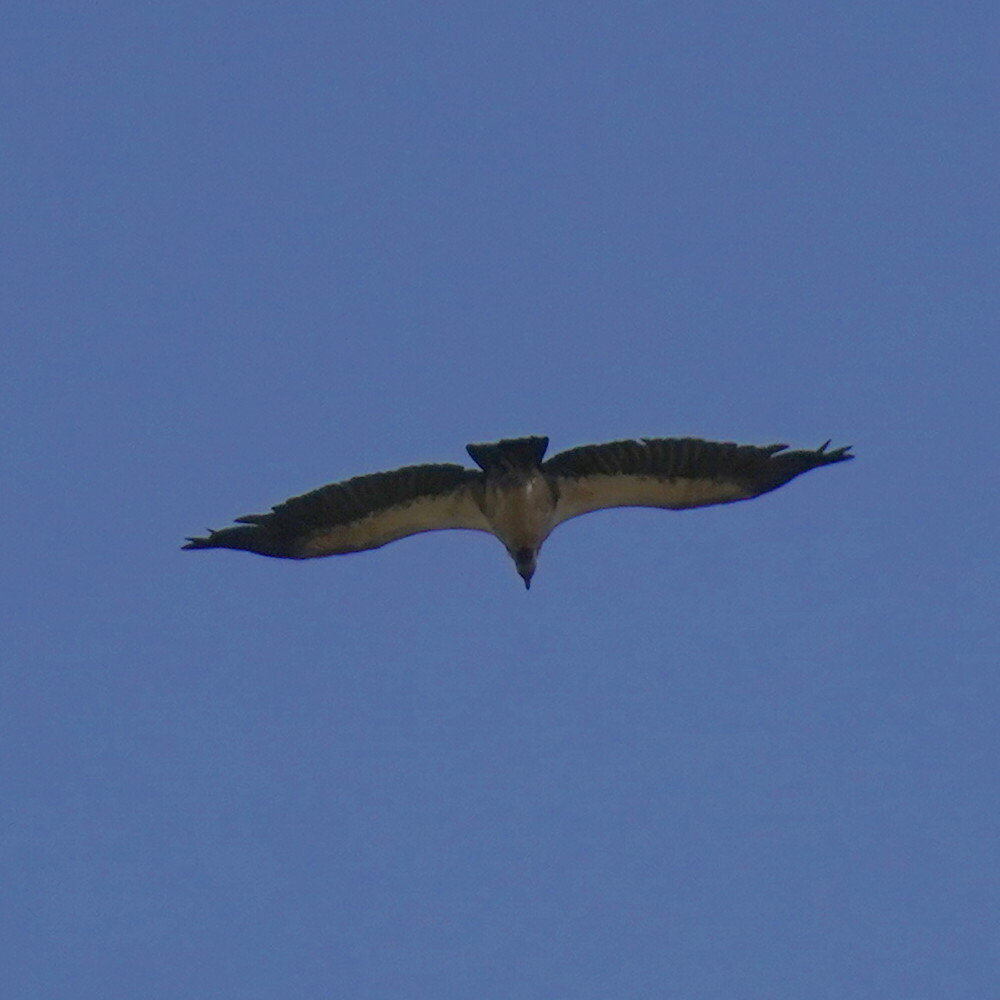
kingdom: Animalia
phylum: Chordata
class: Aves
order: Accipitriformes
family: Accipitridae
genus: Gyps
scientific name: Gyps africanus
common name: White-backed vulture
